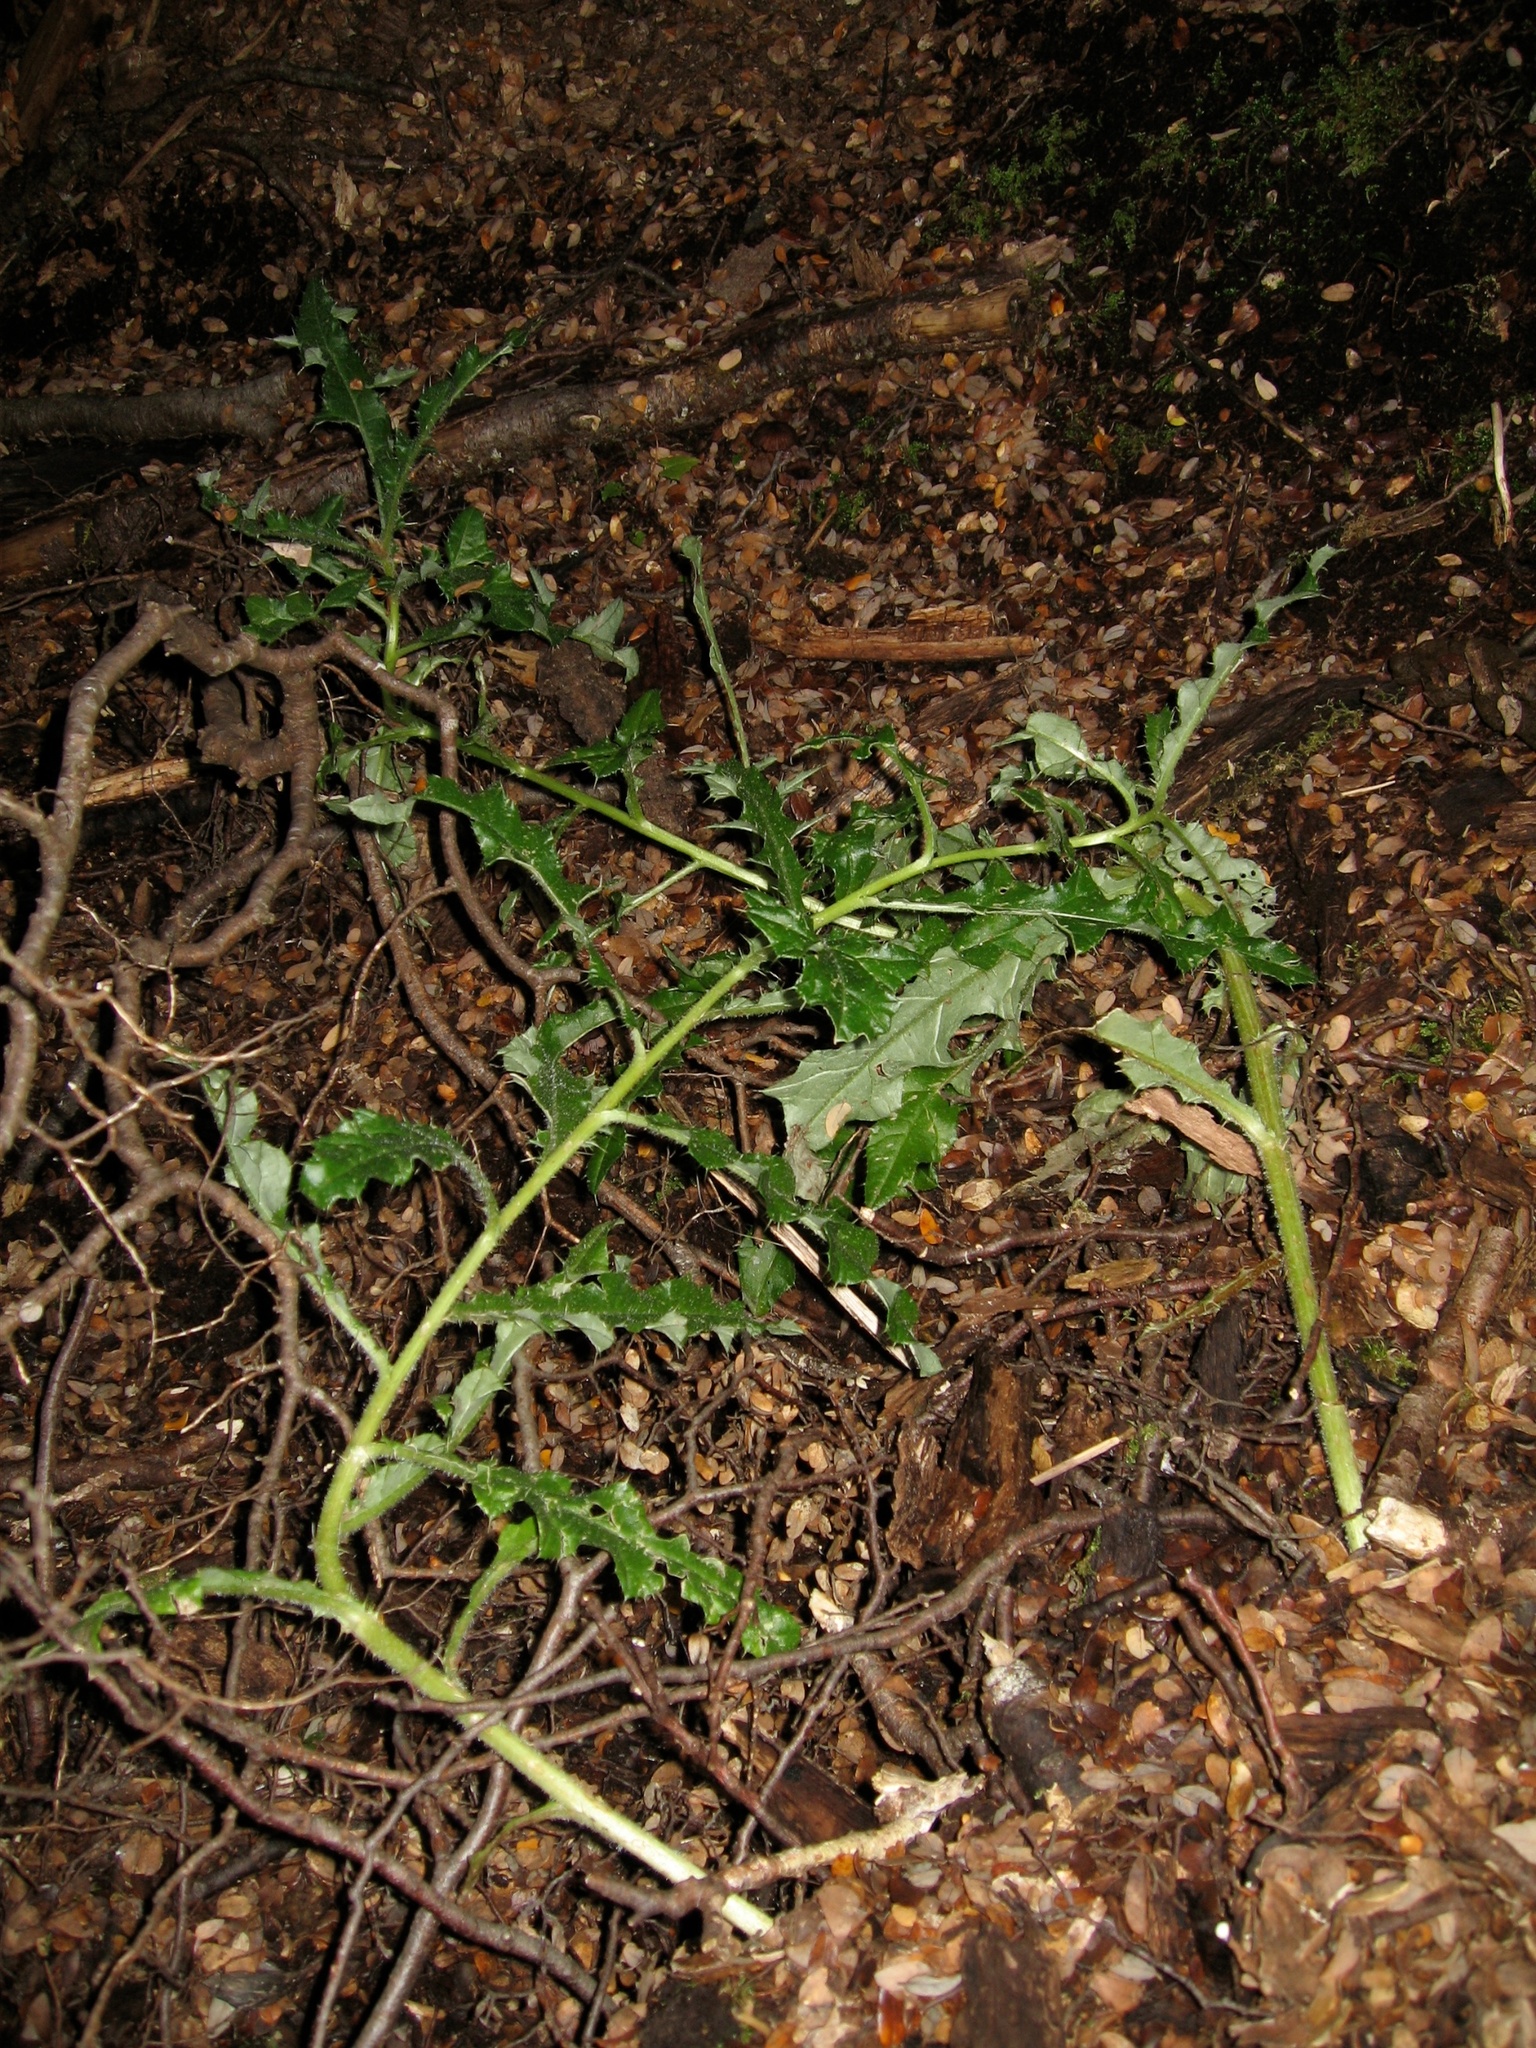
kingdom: Plantae
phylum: Tracheophyta
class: Magnoliopsida
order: Asterales
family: Asteraceae
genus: Cirsium
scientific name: Cirsium arvense
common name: Creeping thistle
